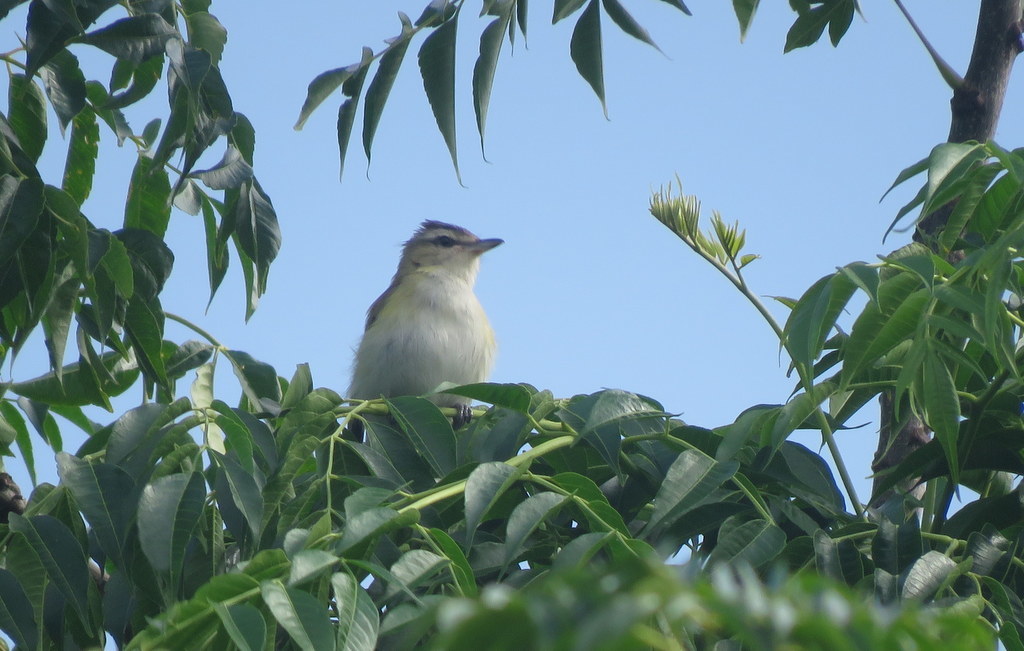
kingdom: Animalia
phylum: Chordata
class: Aves
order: Passeriformes
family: Vireonidae
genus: Vireo
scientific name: Vireo olivaceus
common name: Red-eyed vireo
